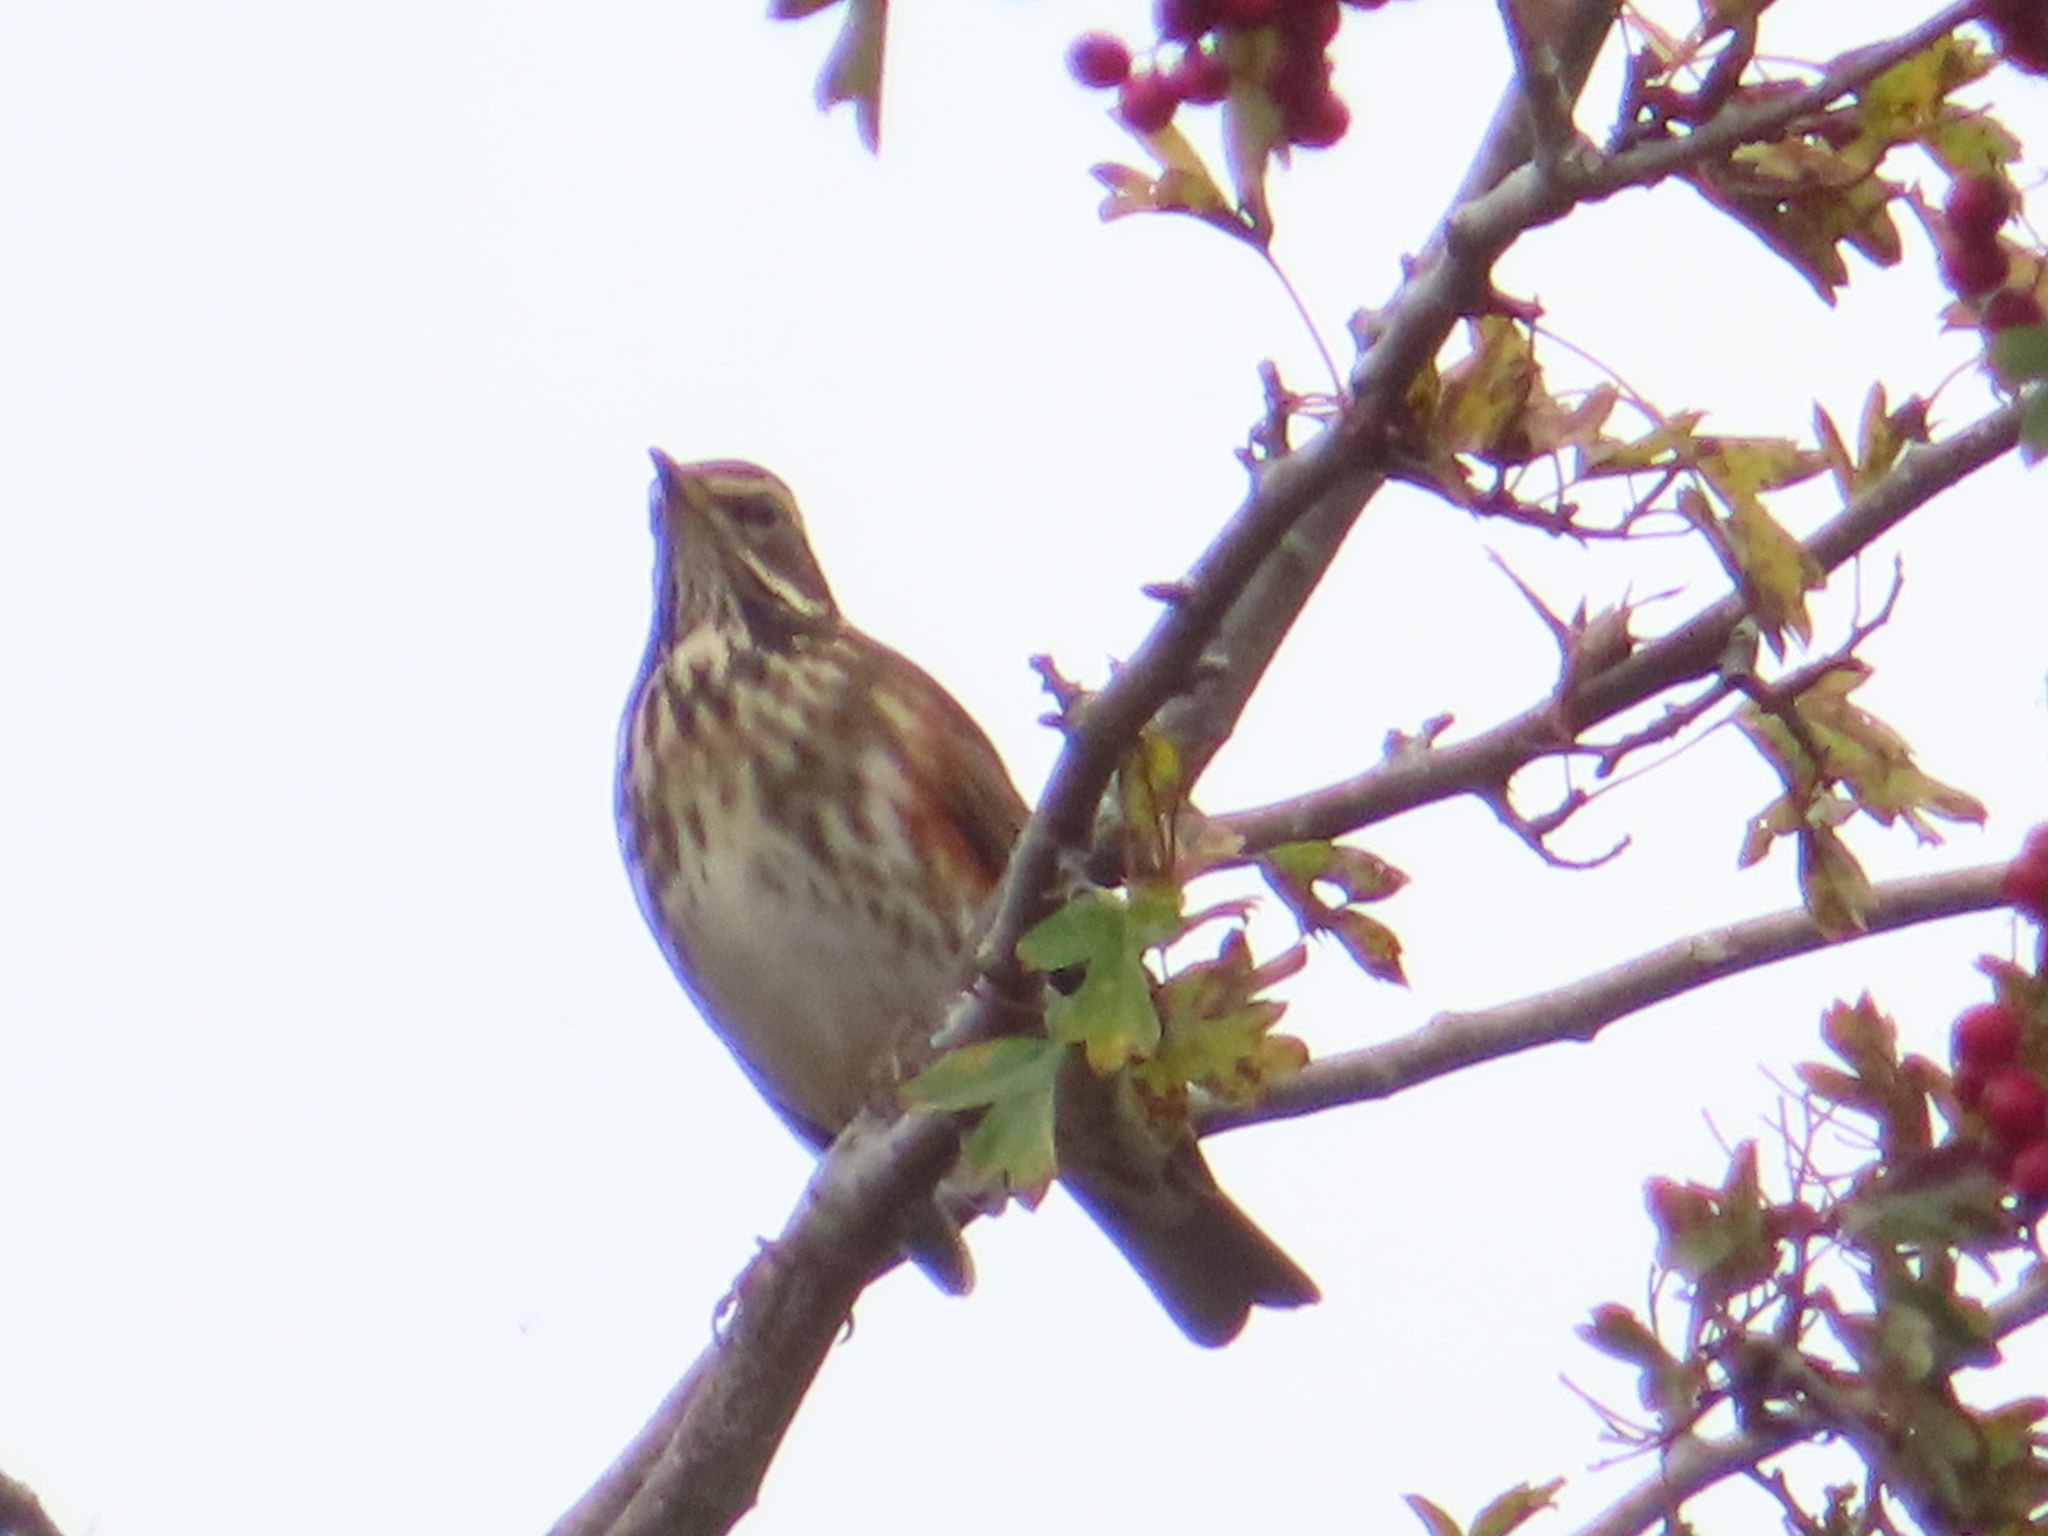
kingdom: Animalia
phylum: Chordata
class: Aves
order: Passeriformes
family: Turdidae
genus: Turdus
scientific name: Turdus iliacus
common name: Redwing
